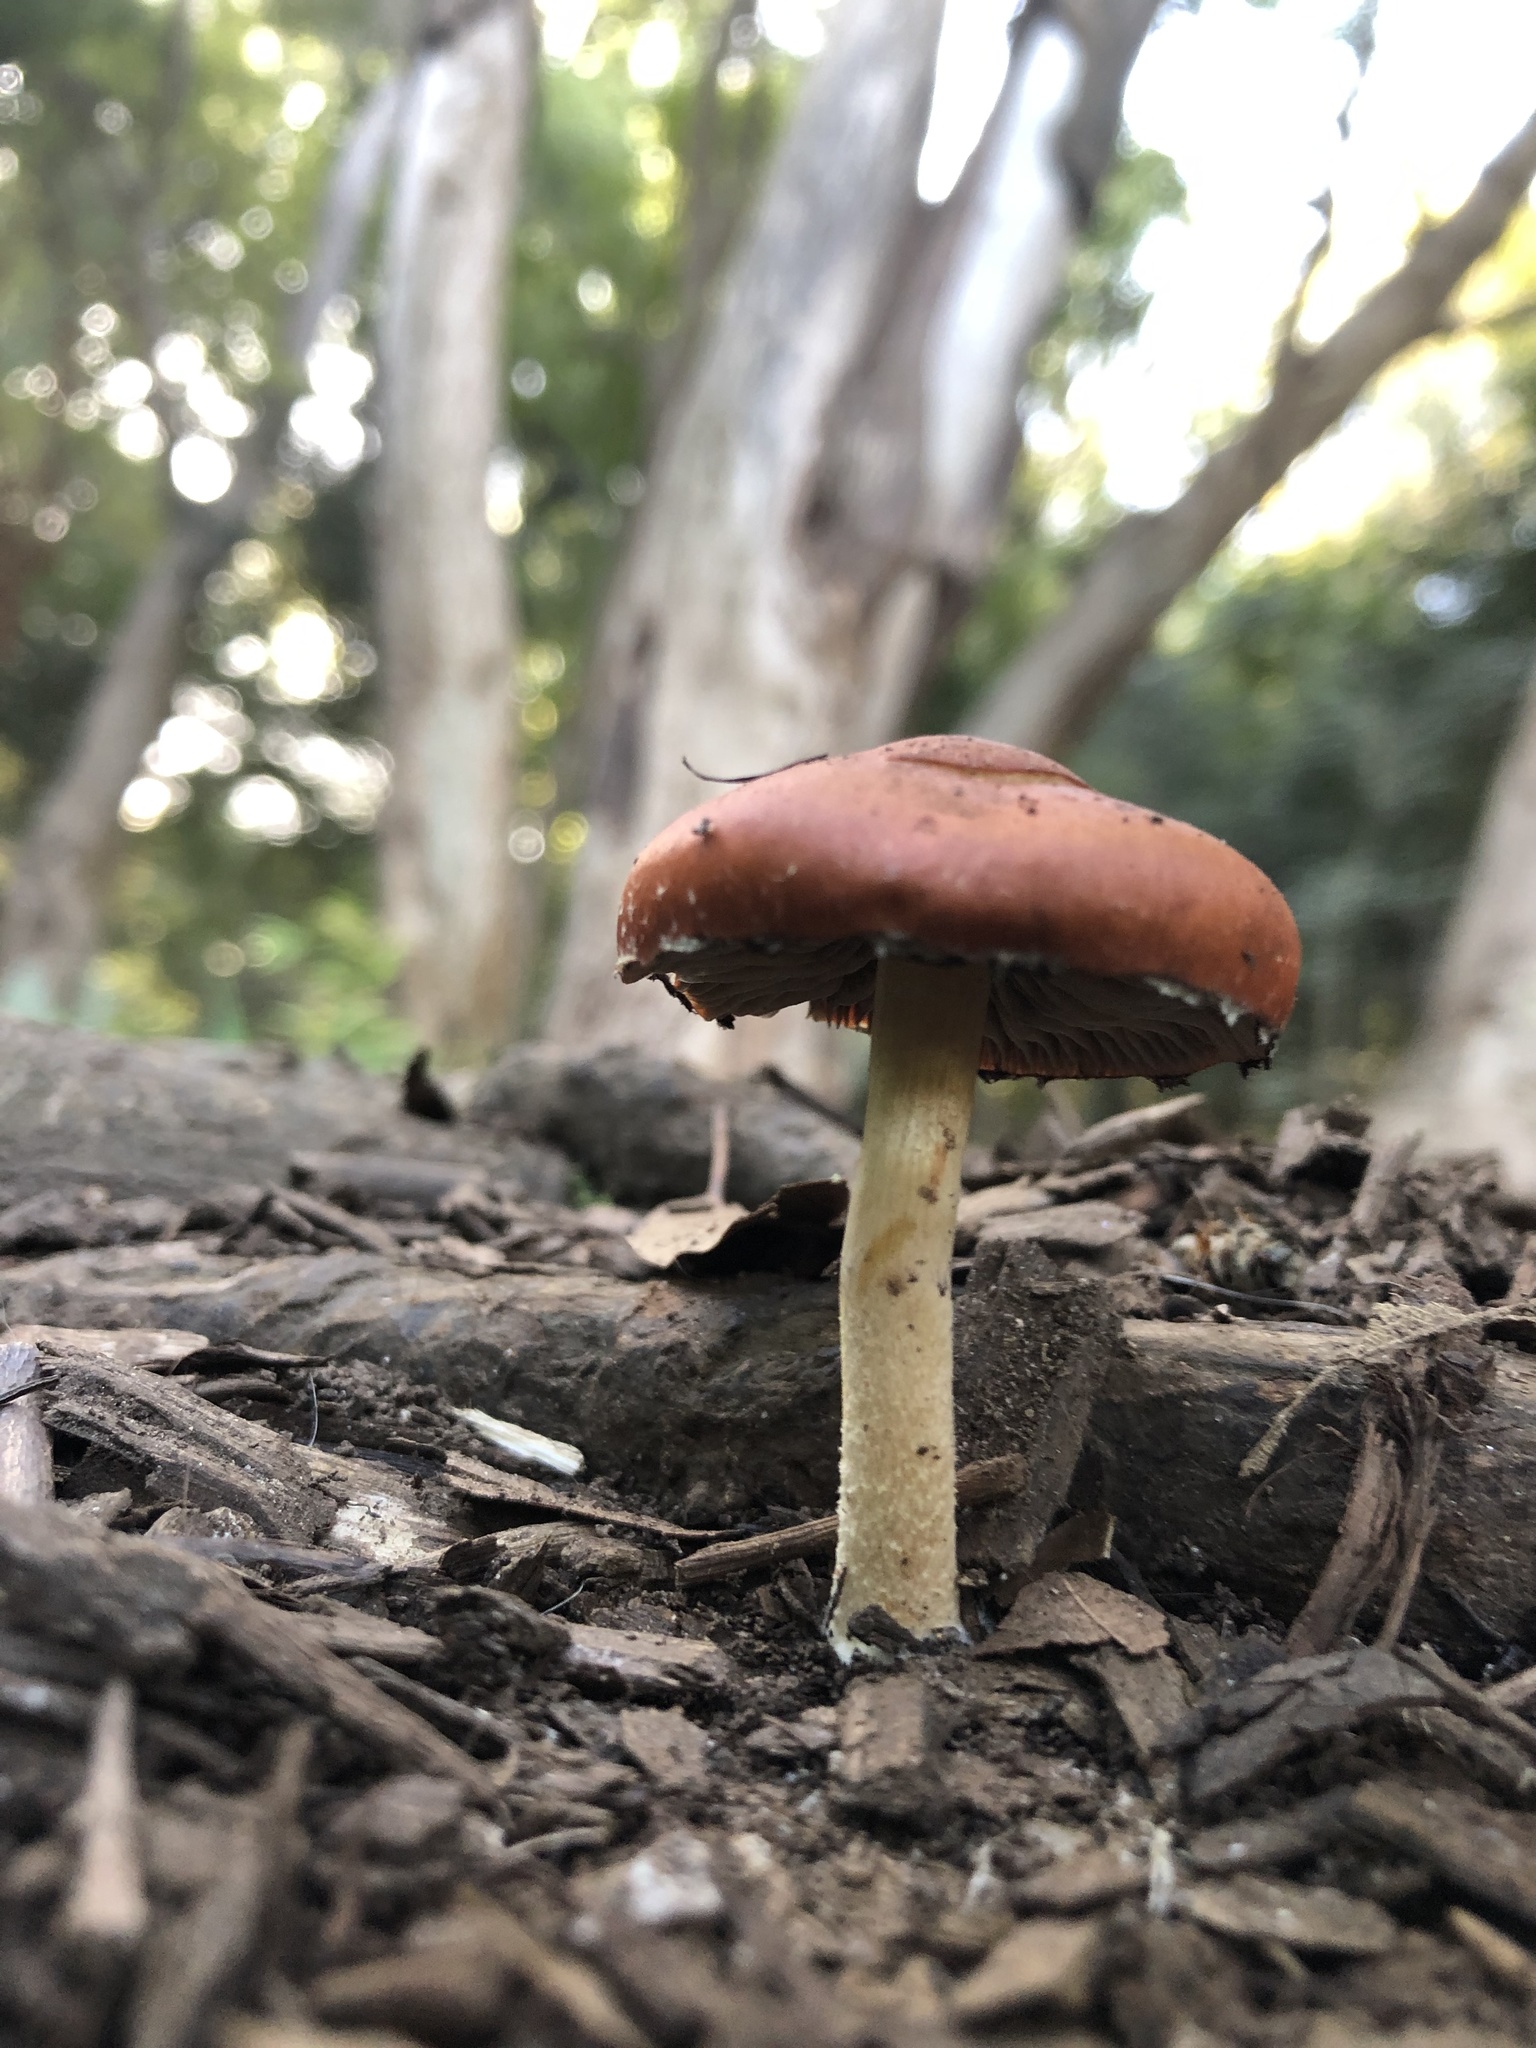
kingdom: Fungi
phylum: Basidiomycota
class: Agaricomycetes
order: Agaricales
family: Strophariaceae
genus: Leratiomyces
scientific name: Leratiomyces ceres
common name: Redlead roundhead
